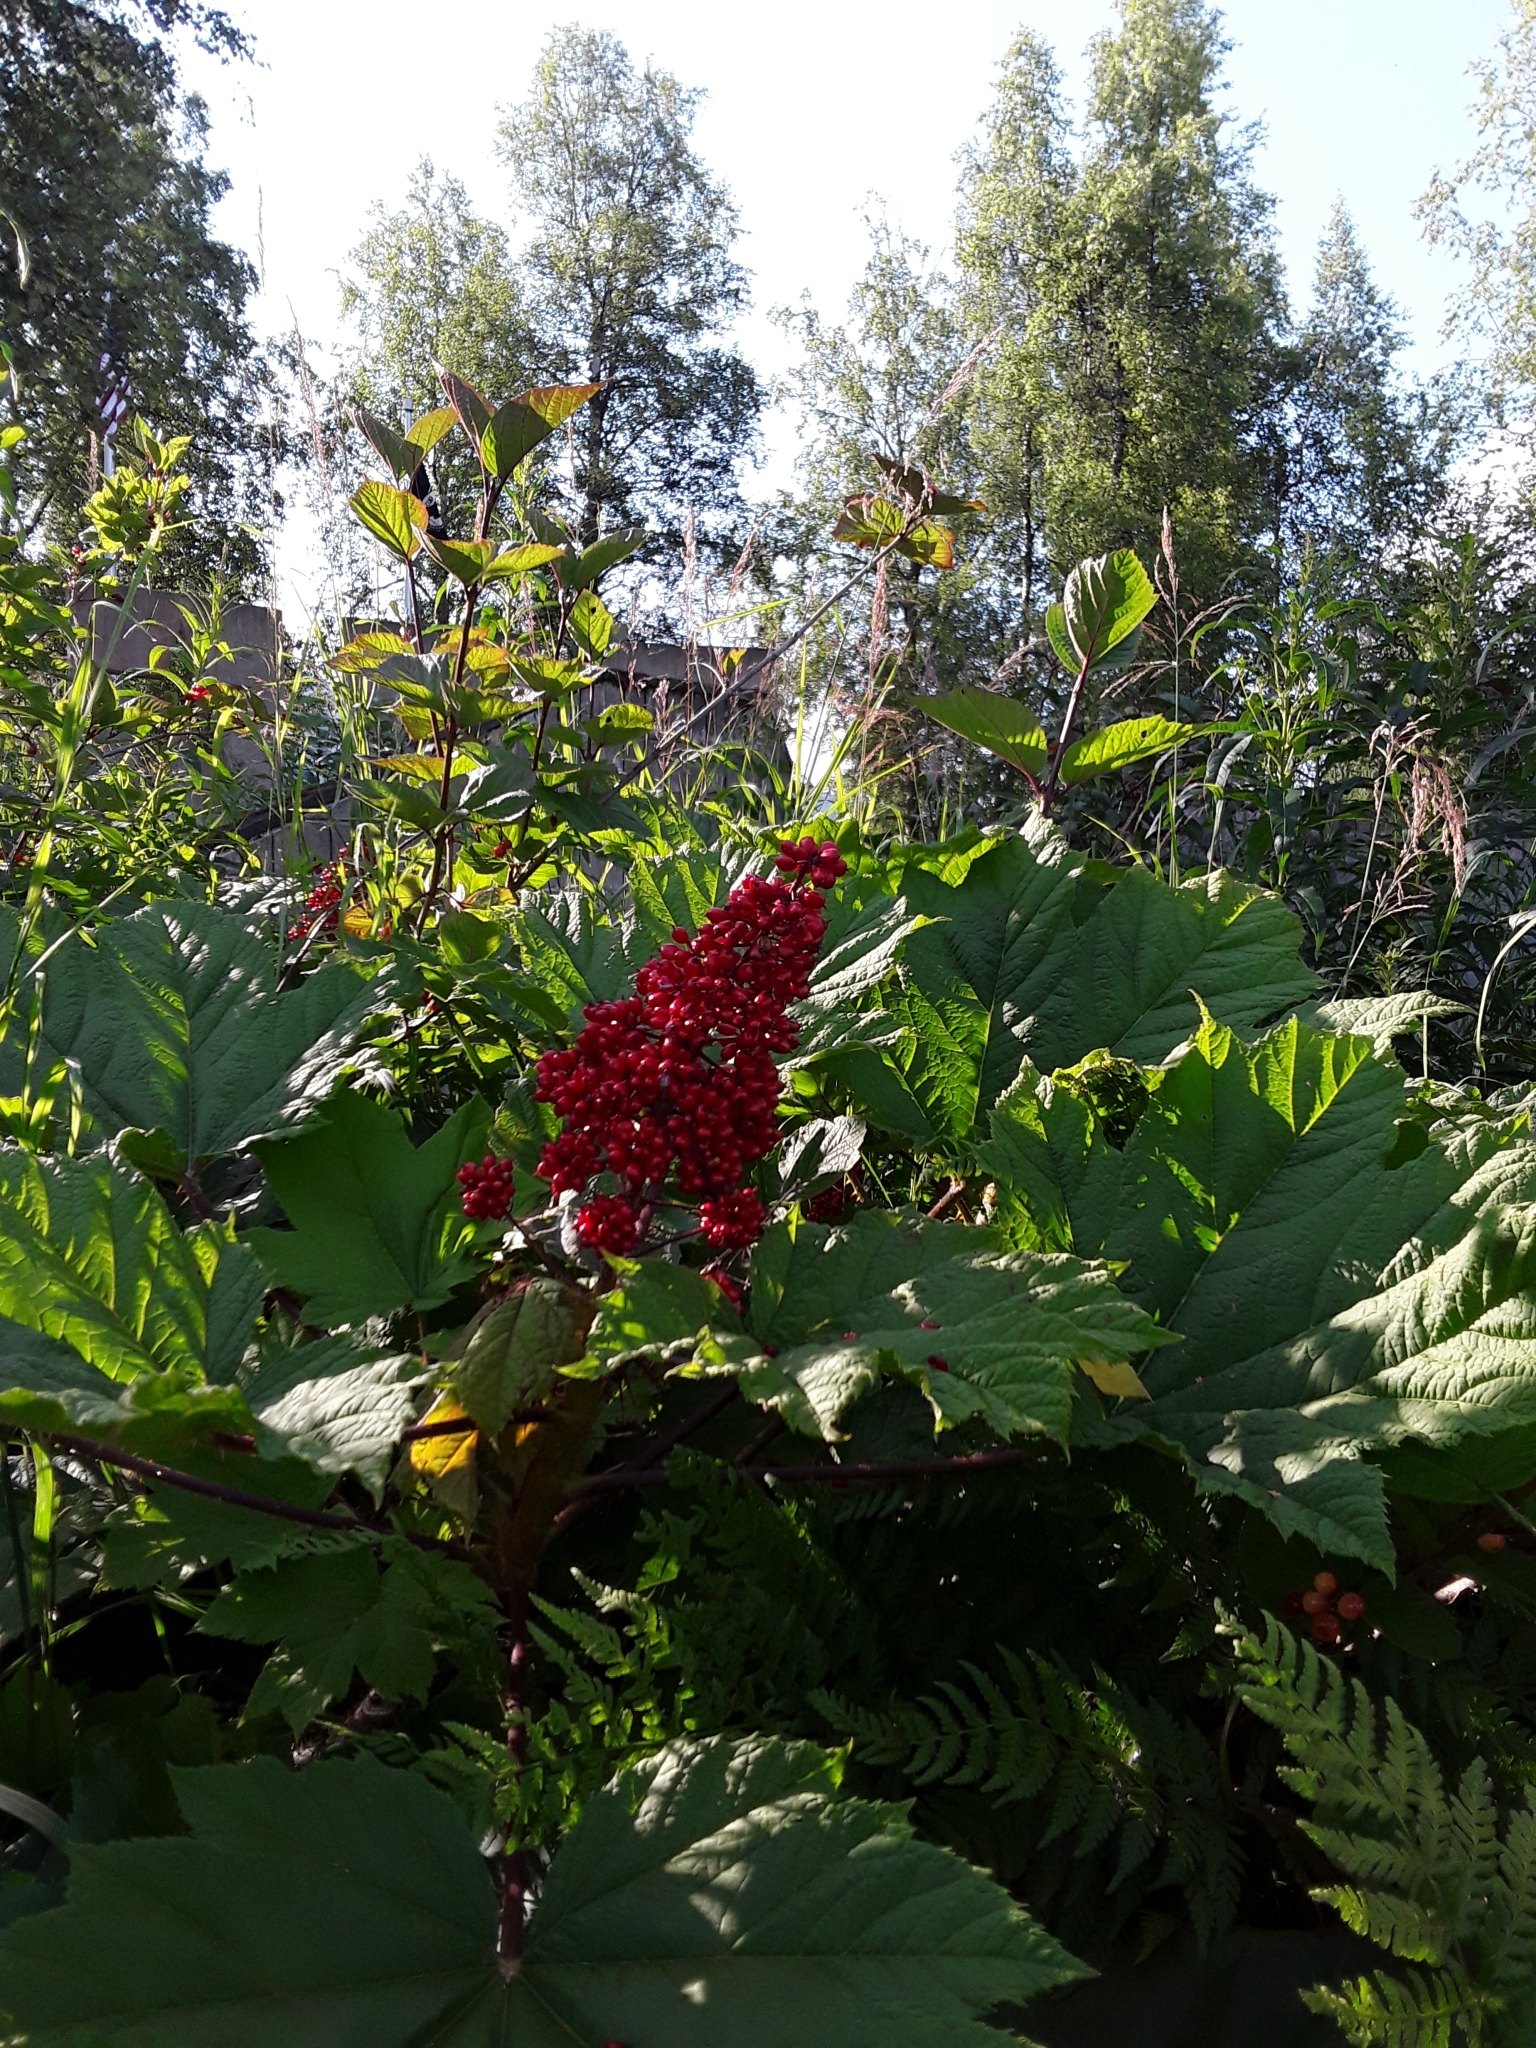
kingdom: Plantae
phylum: Tracheophyta
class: Magnoliopsida
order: Apiales
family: Araliaceae
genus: Oplopanax
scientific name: Oplopanax horridus
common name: Devil's walking-stick
